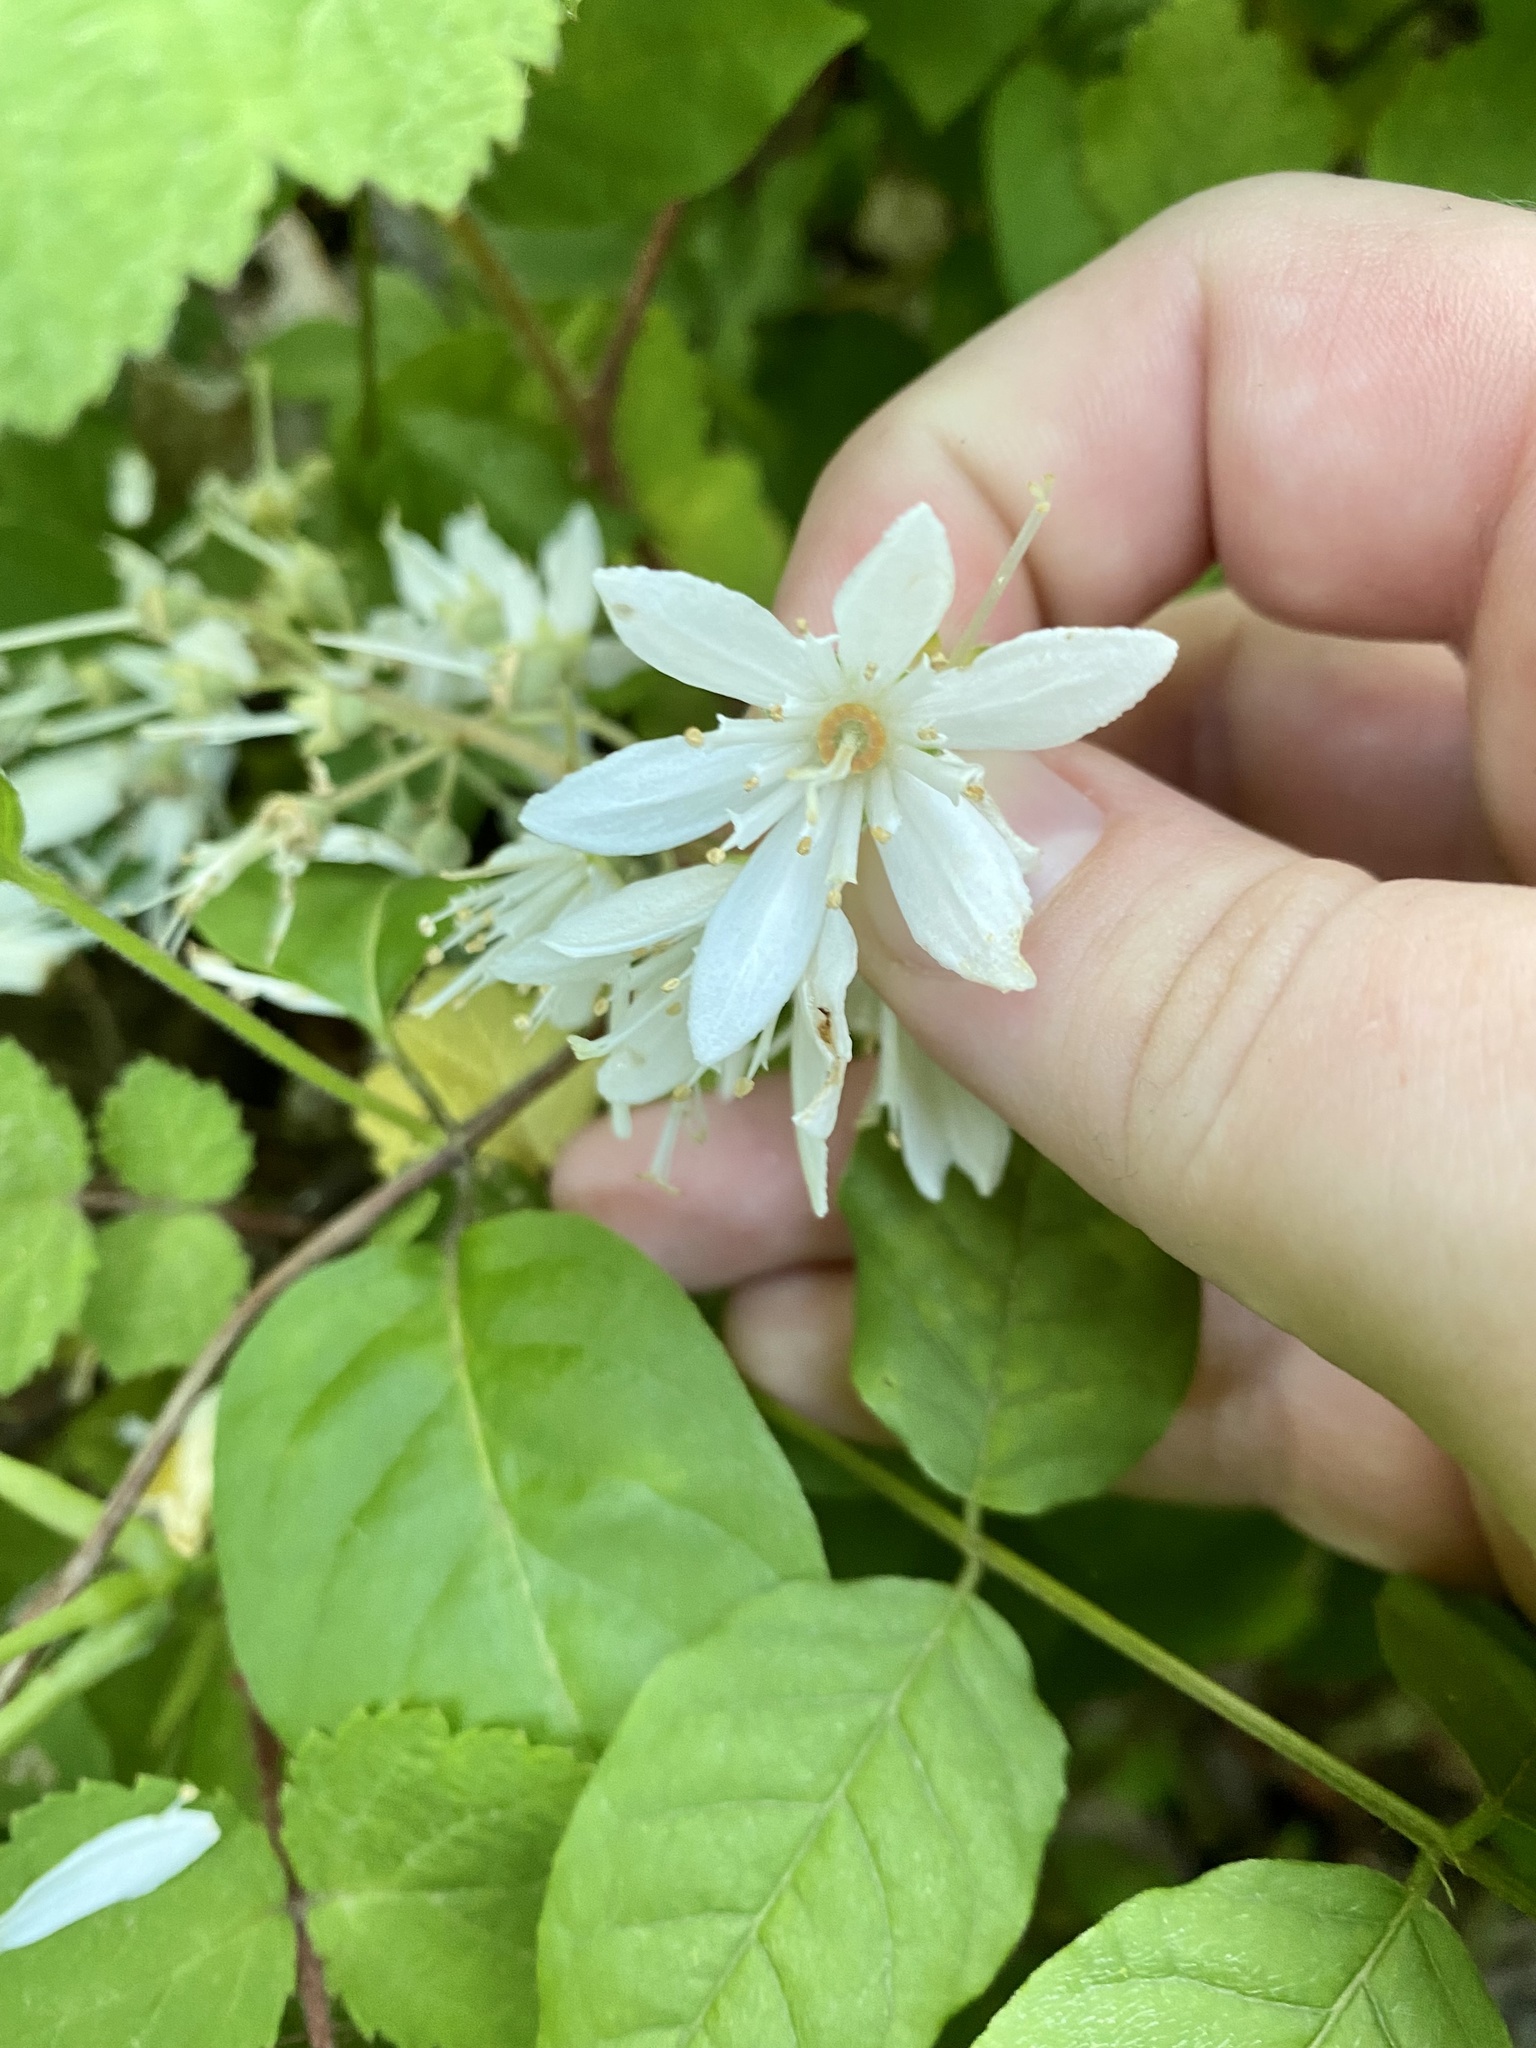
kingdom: Plantae
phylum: Tracheophyta
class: Magnoliopsida
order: Cornales
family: Hydrangeaceae
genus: Deutzia
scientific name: Deutzia crenata
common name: Deutzia
